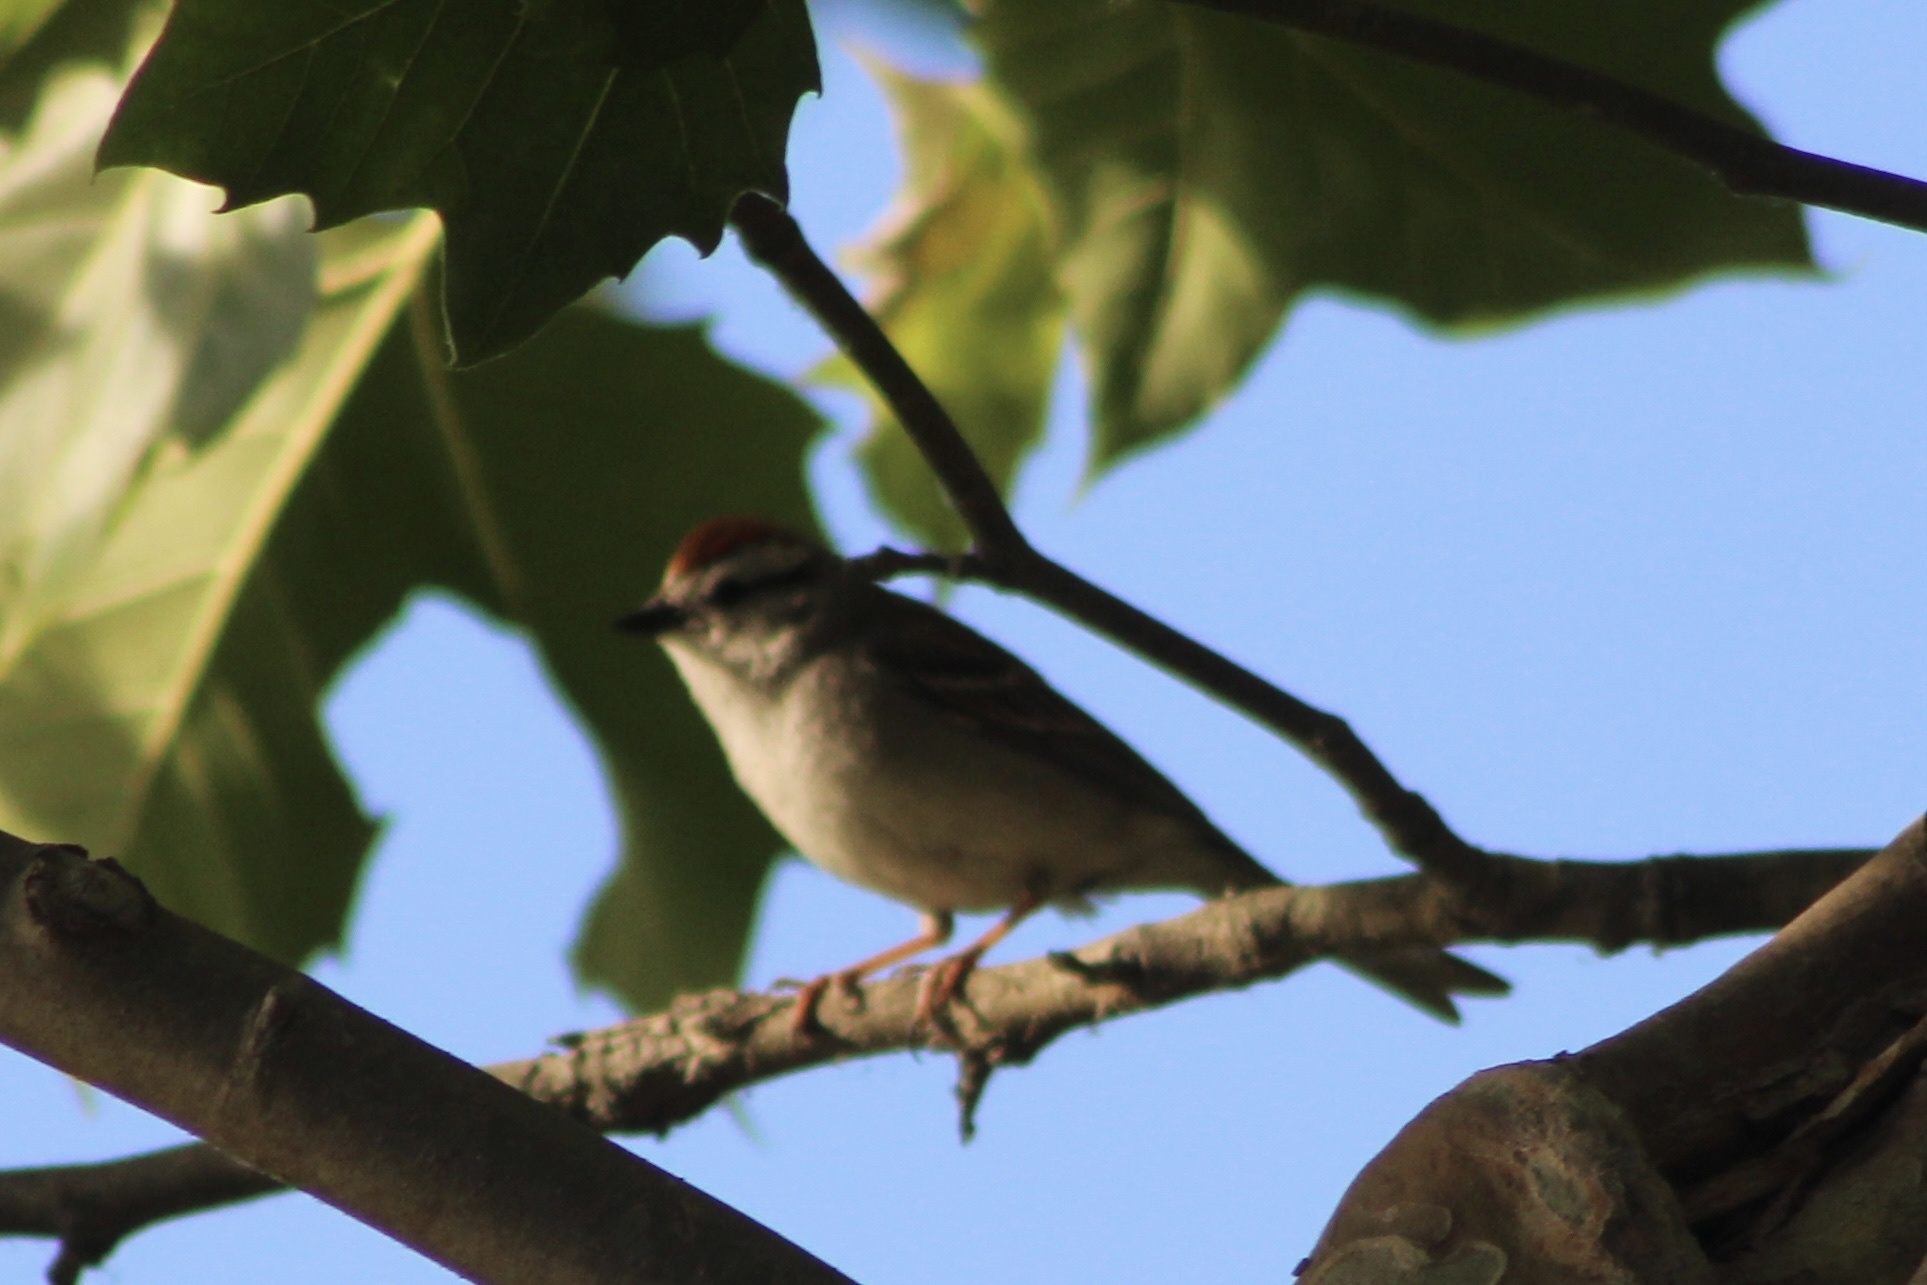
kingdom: Animalia
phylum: Chordata
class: Aves
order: Passeriformes
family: Passerellidae
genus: Spizella
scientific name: Spizella passerina
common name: Chipping sparrow
